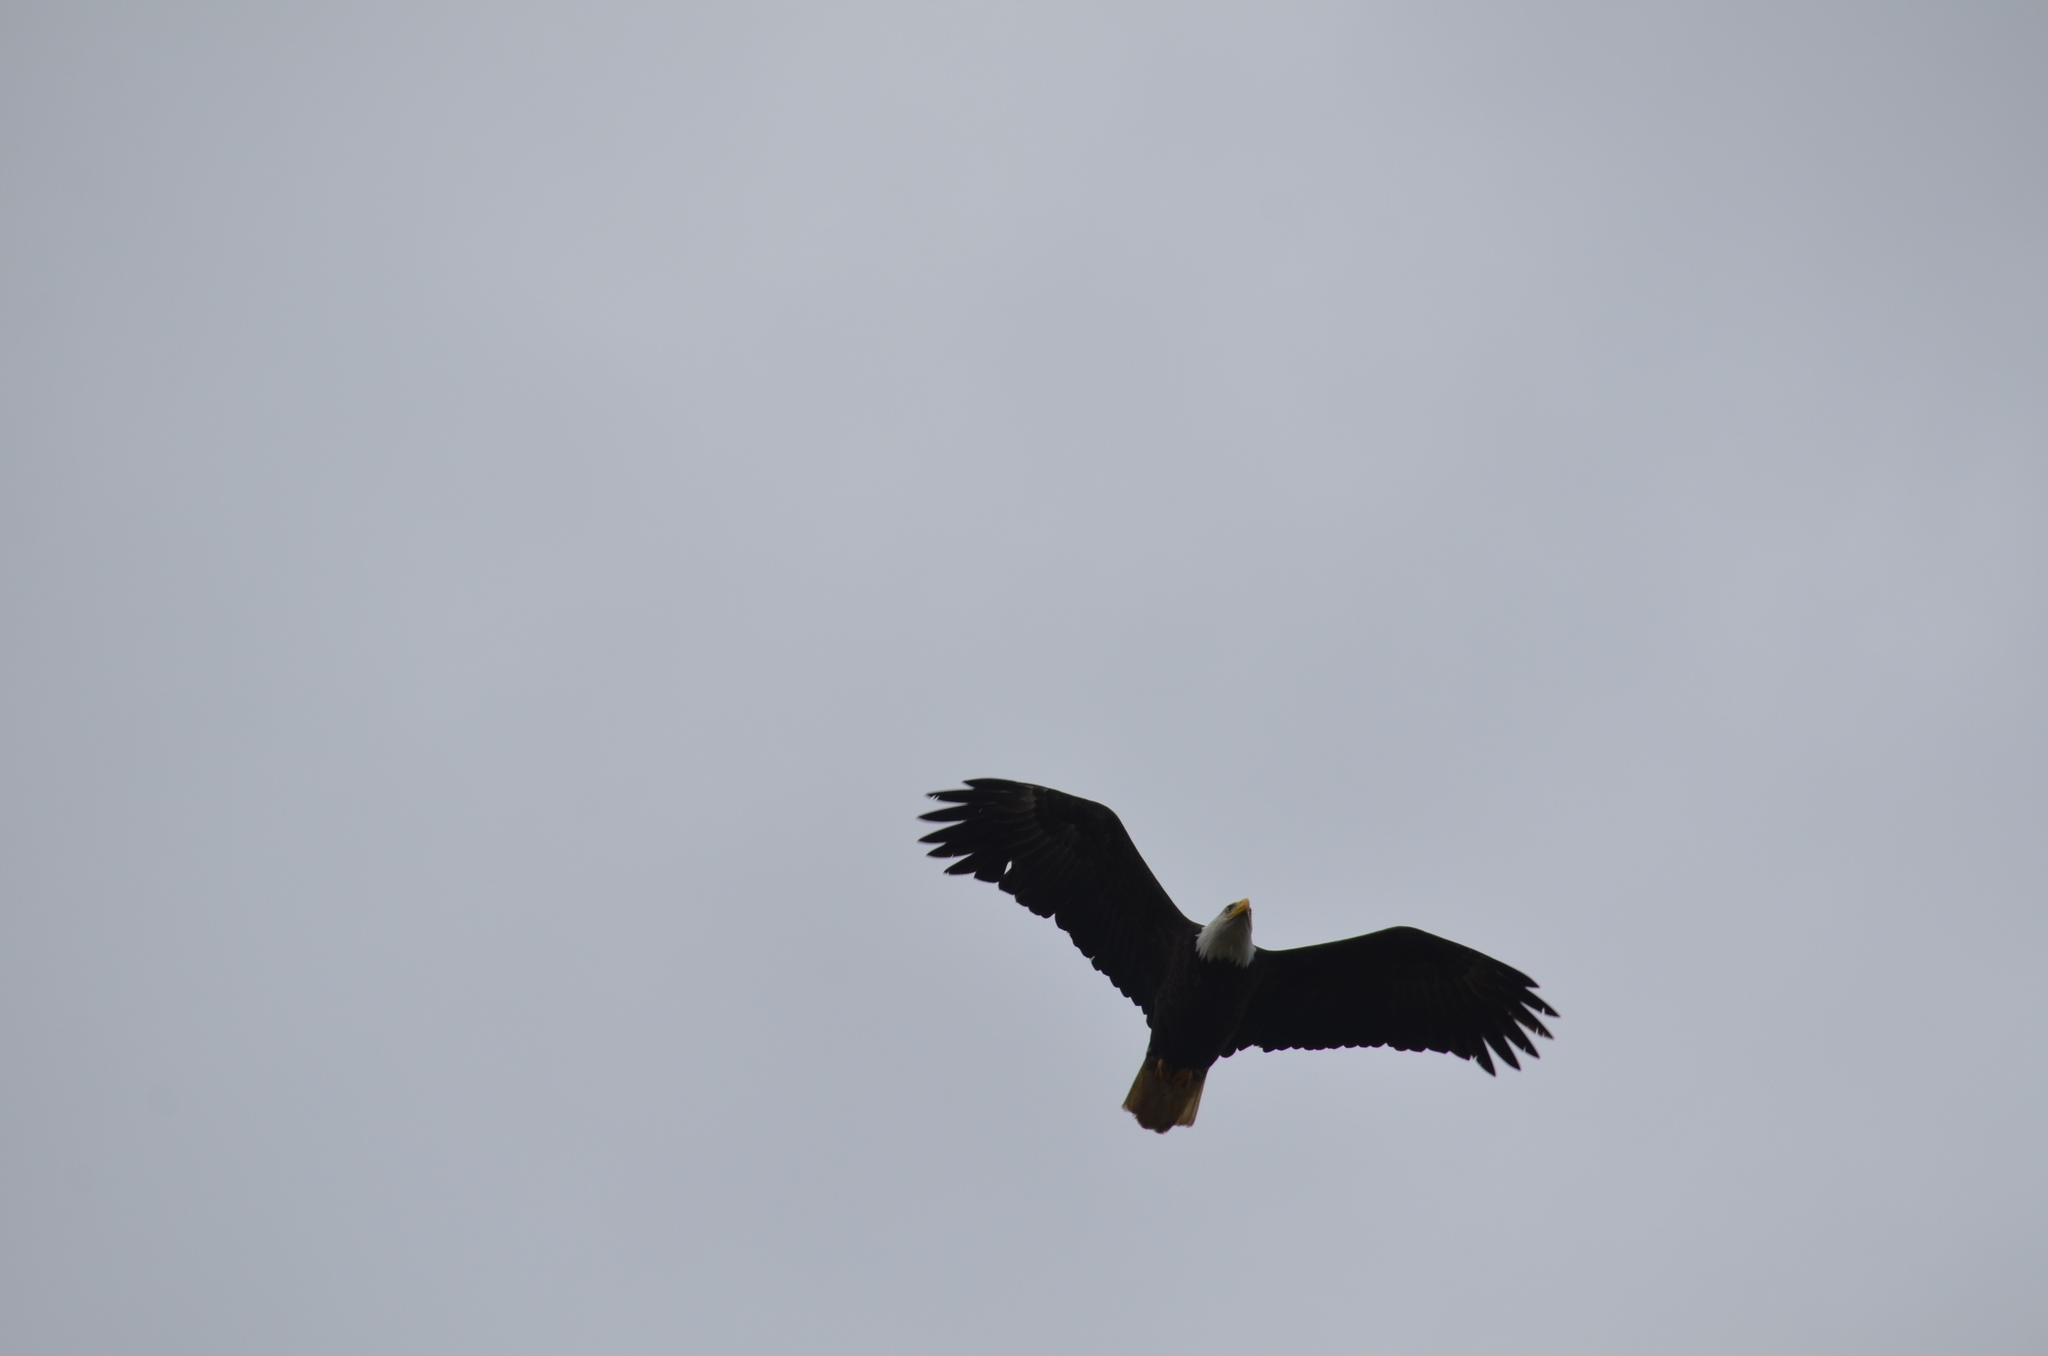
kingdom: Animalia
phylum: Chordata
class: Aves
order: Accipitriformes
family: Accipitridae
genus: Haliaeetus
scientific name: Haliaeetus leucocephalus
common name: Bald eagle
